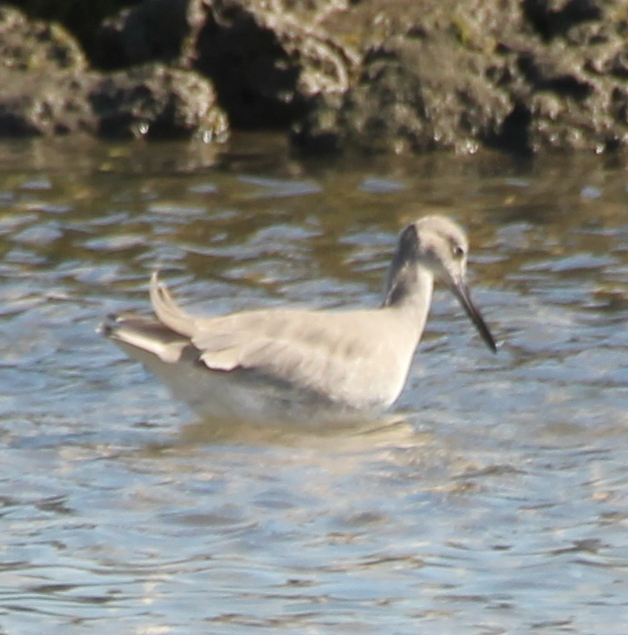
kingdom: Animalia
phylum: Chordata
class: Aves
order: Charadriiformes
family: Scolopacidae
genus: Tringa
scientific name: Tringa semipalmata
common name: Willet
